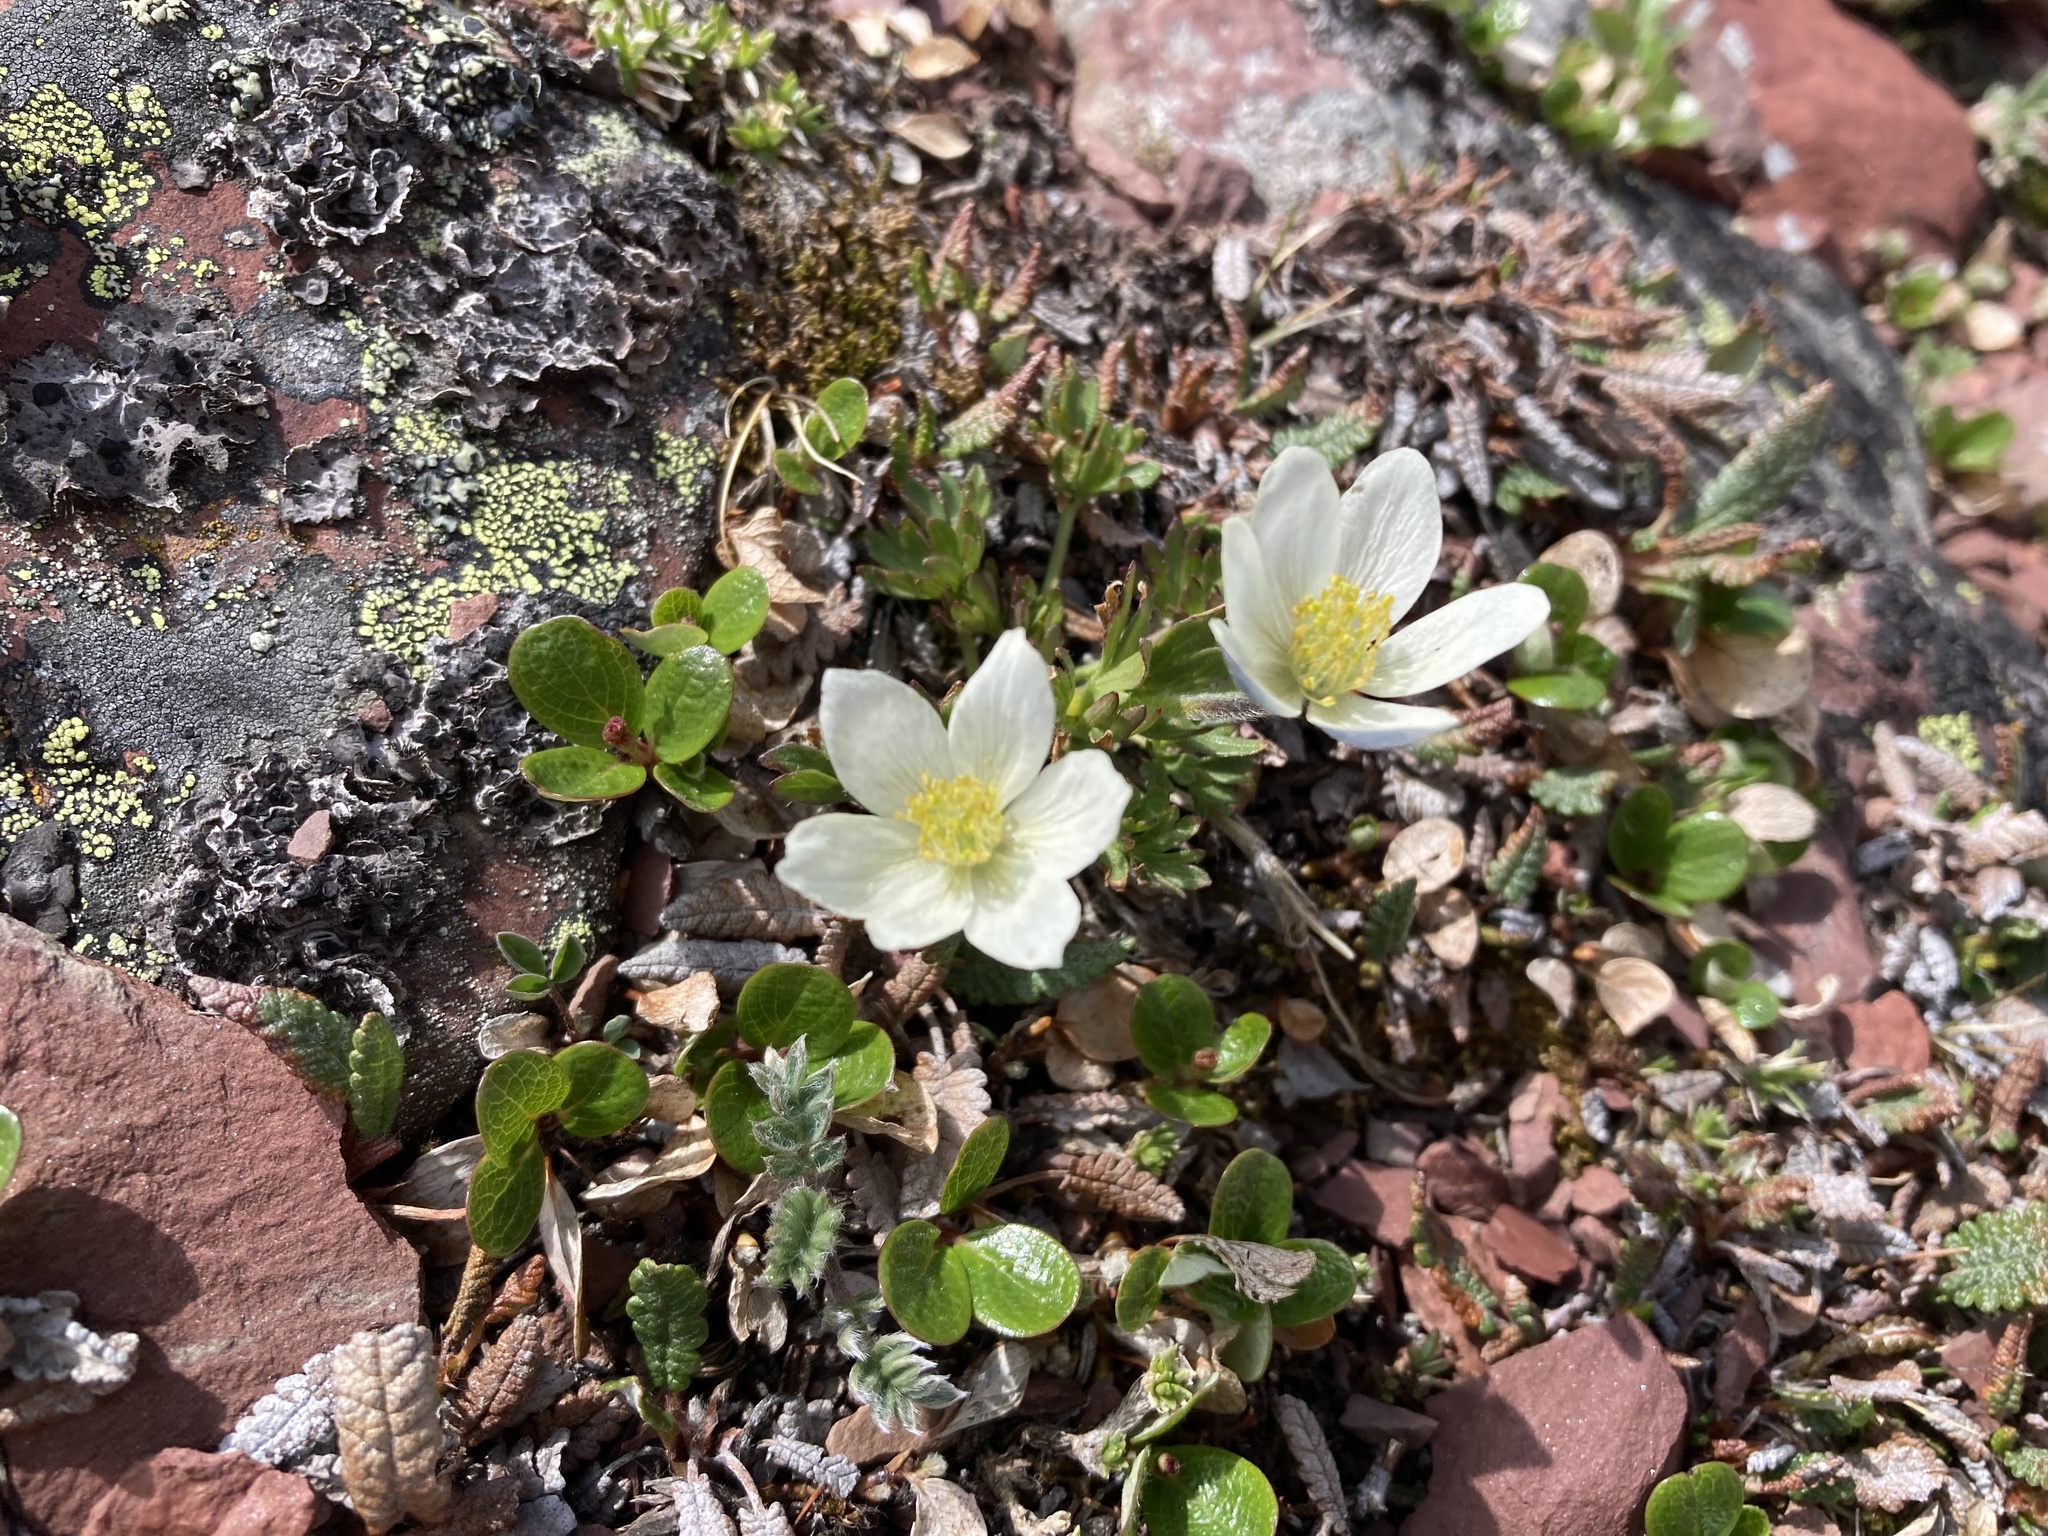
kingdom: Plantae
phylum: Tracheophyta
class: Magnoliopsida
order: Ranunculales
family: Ranunculaceae
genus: Anemone
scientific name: Anemone drummondii
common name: Drummond's anemone
